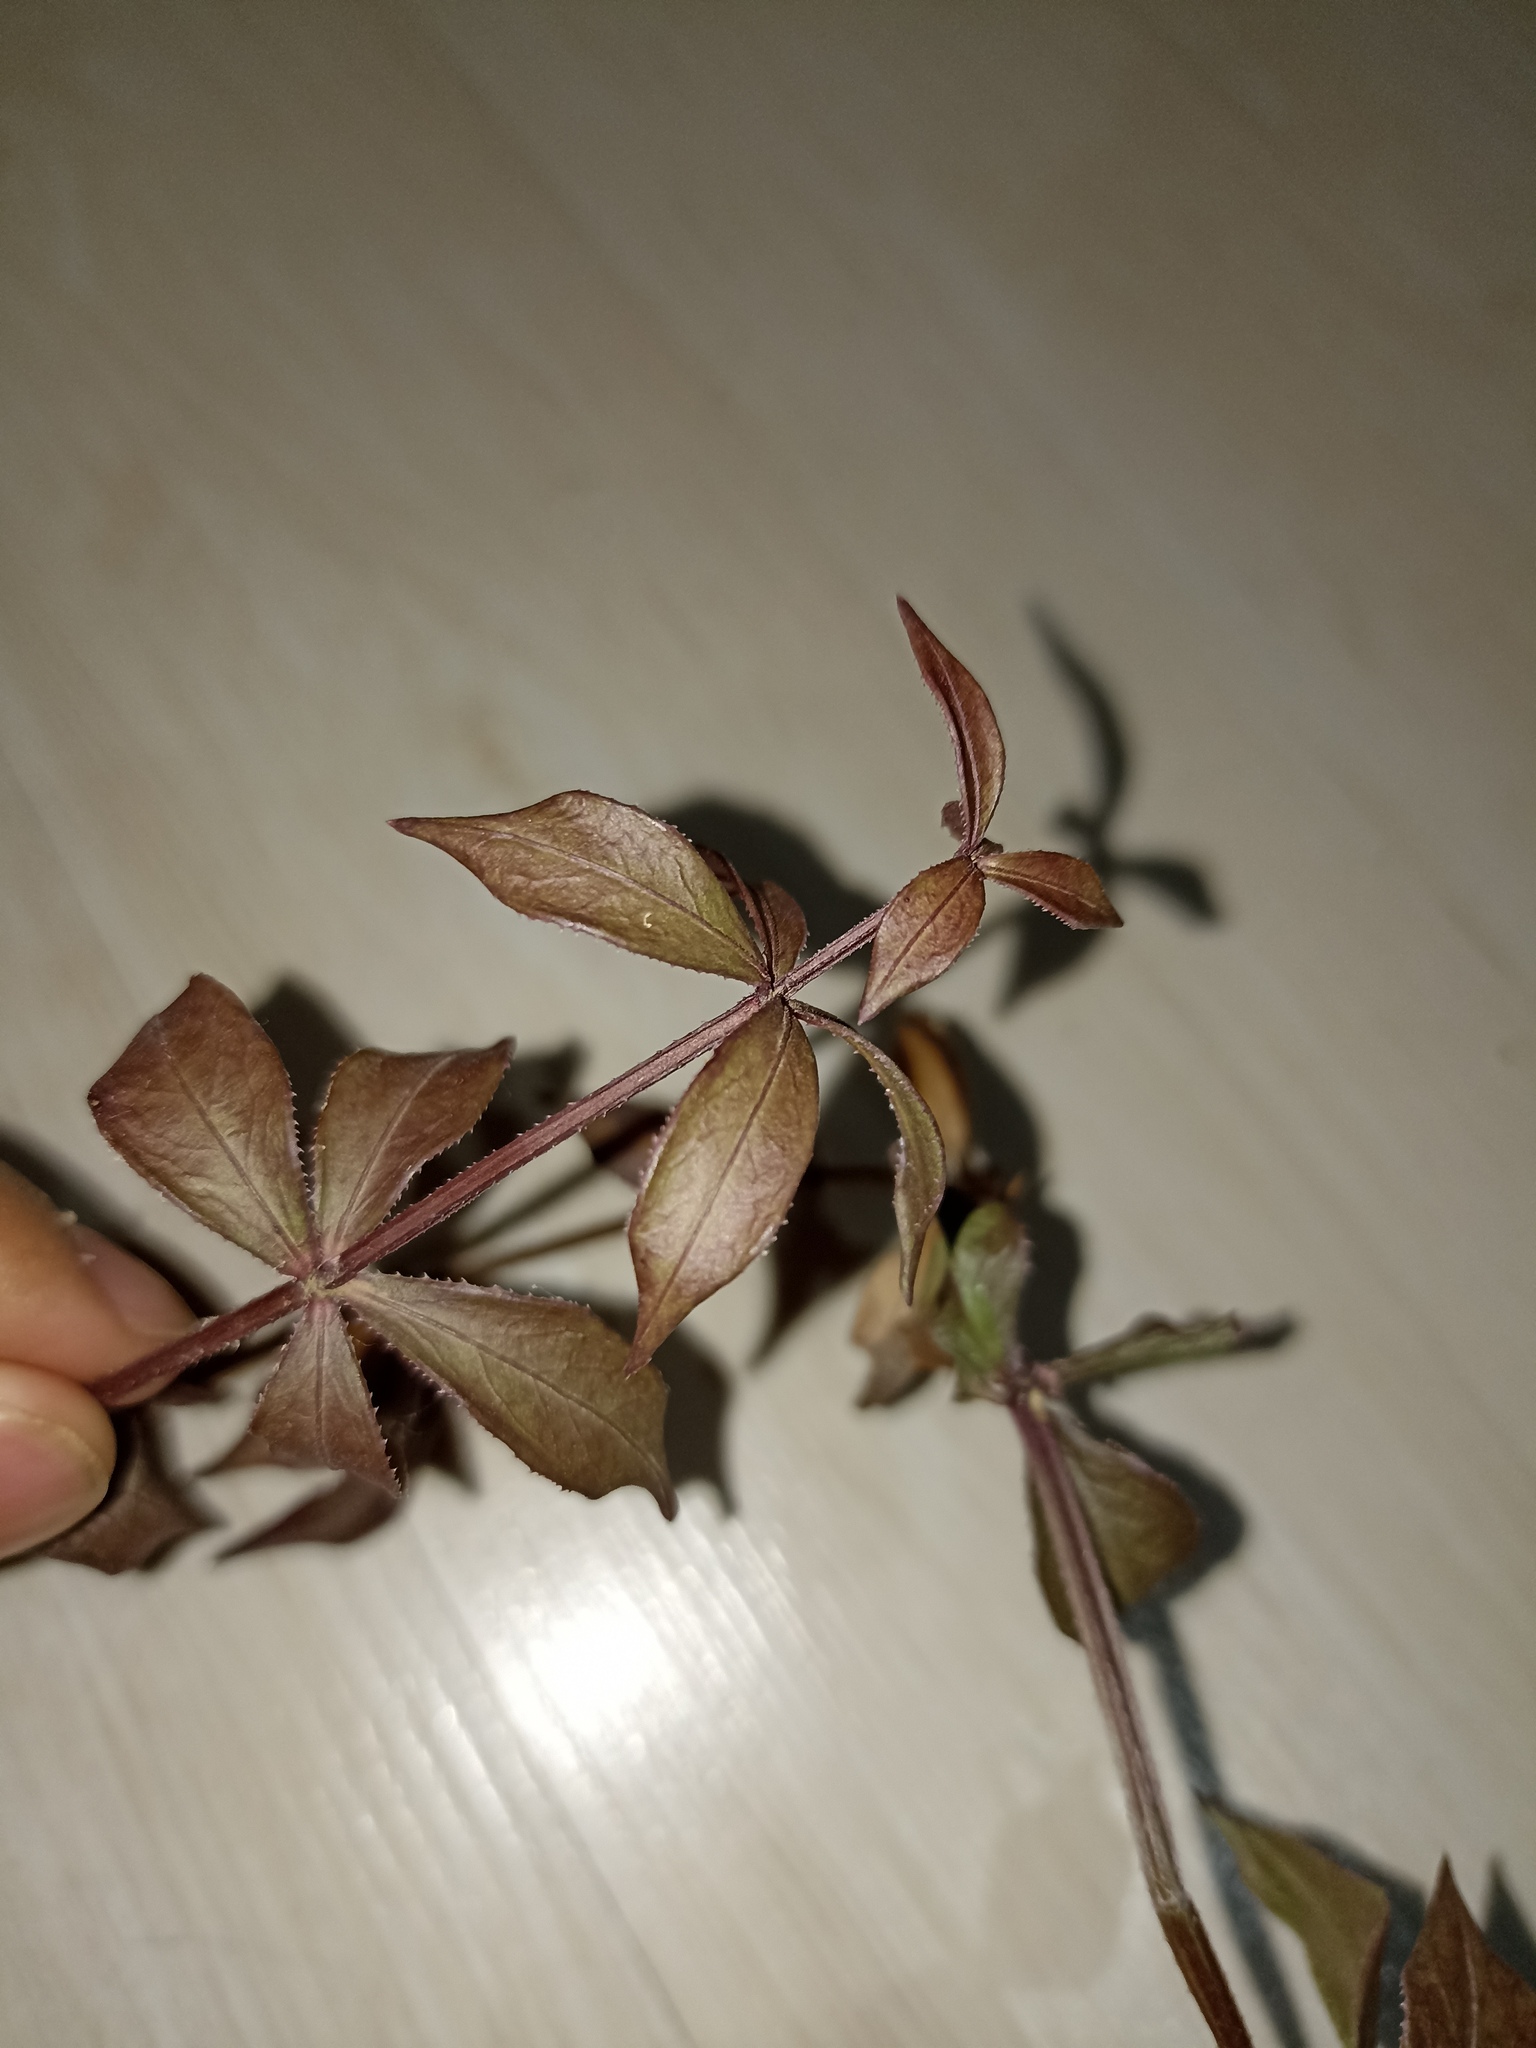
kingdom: Plantae
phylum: Tracheophyta
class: Magnoliopsida
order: Gentianales
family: Rubiaceae
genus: Rubia
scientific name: Rubia peregrina
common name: Wild madder
